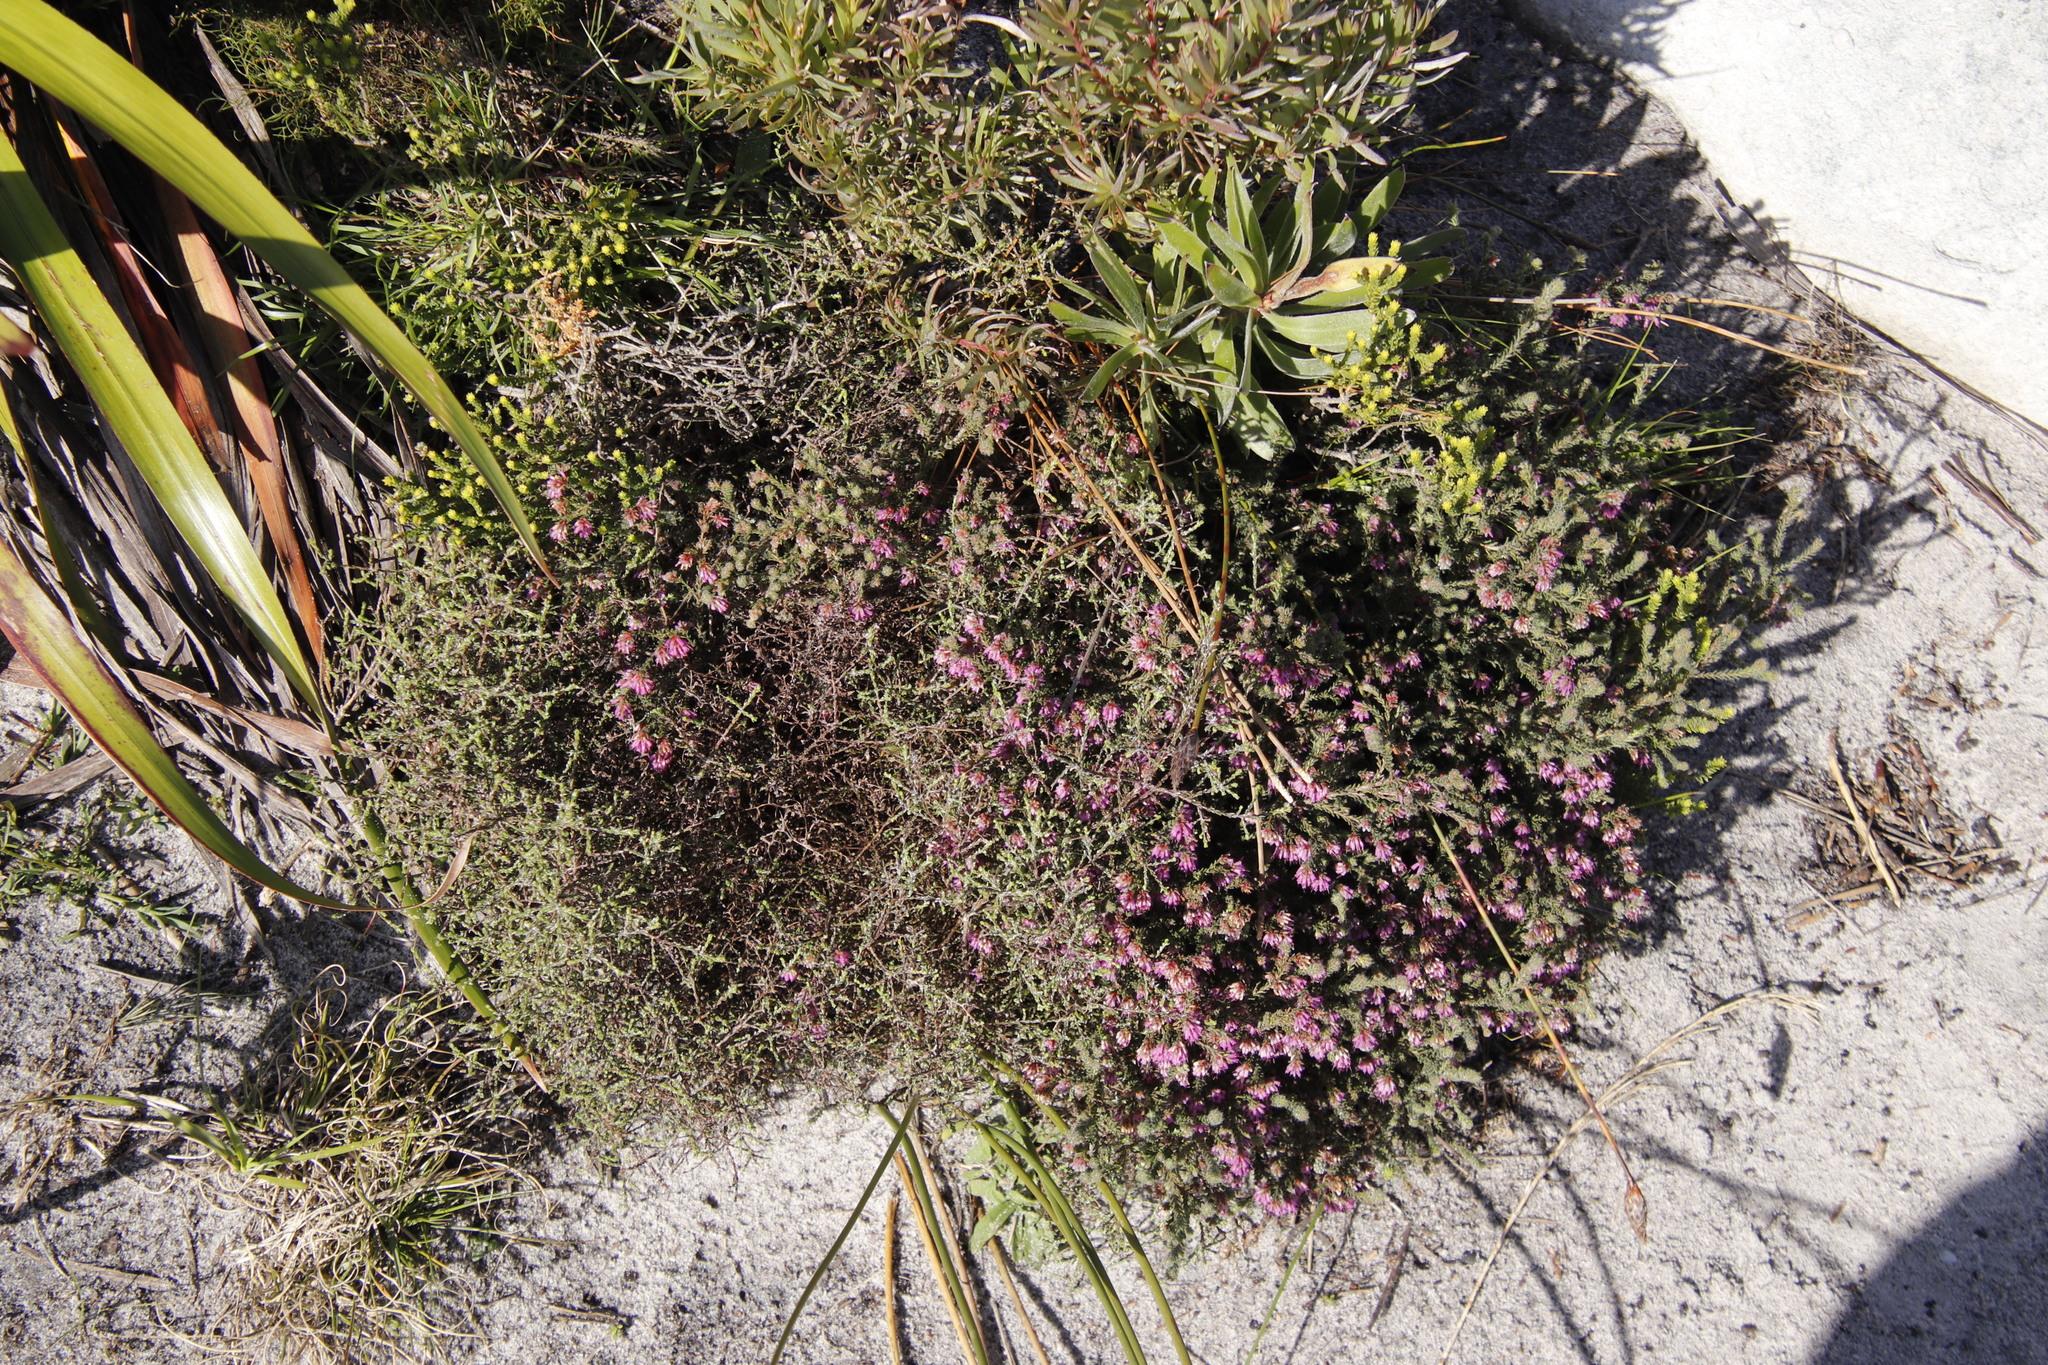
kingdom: Plantae
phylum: Tracheophyta
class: Magnoliopsida
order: Ericales
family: Ericaceae
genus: Erica
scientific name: Erica glabella
